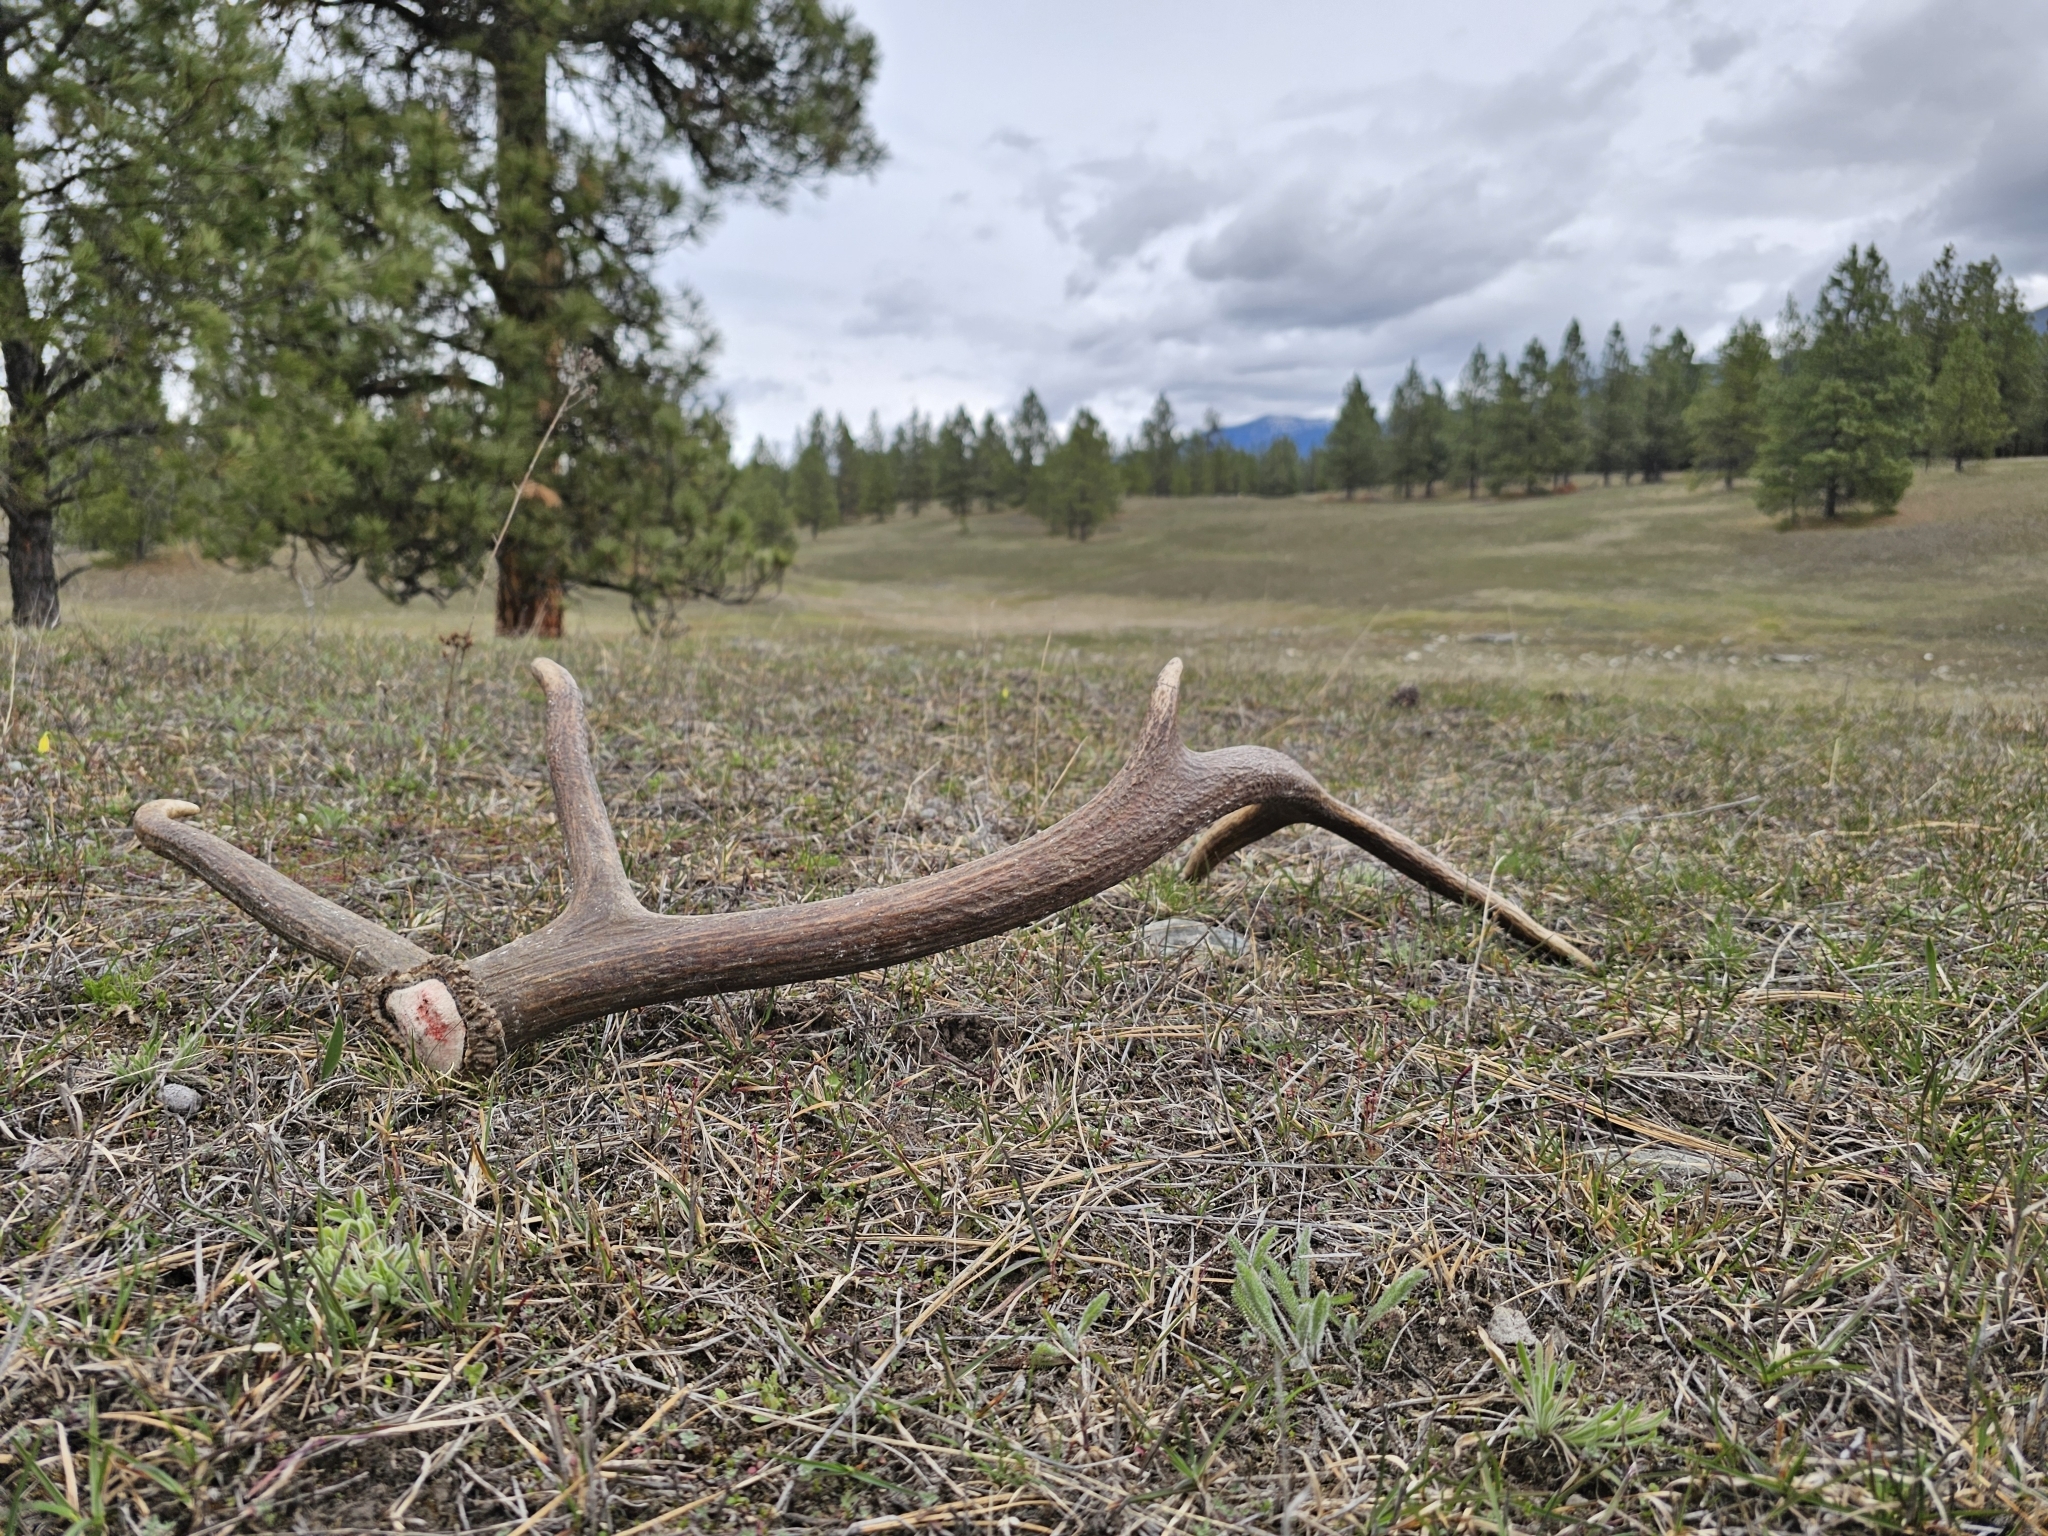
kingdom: Animalia
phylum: Chordata
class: Mammalia
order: Artiodactyla
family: Cervidae
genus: Cervus
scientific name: Cervus elaphus
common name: Red deer
